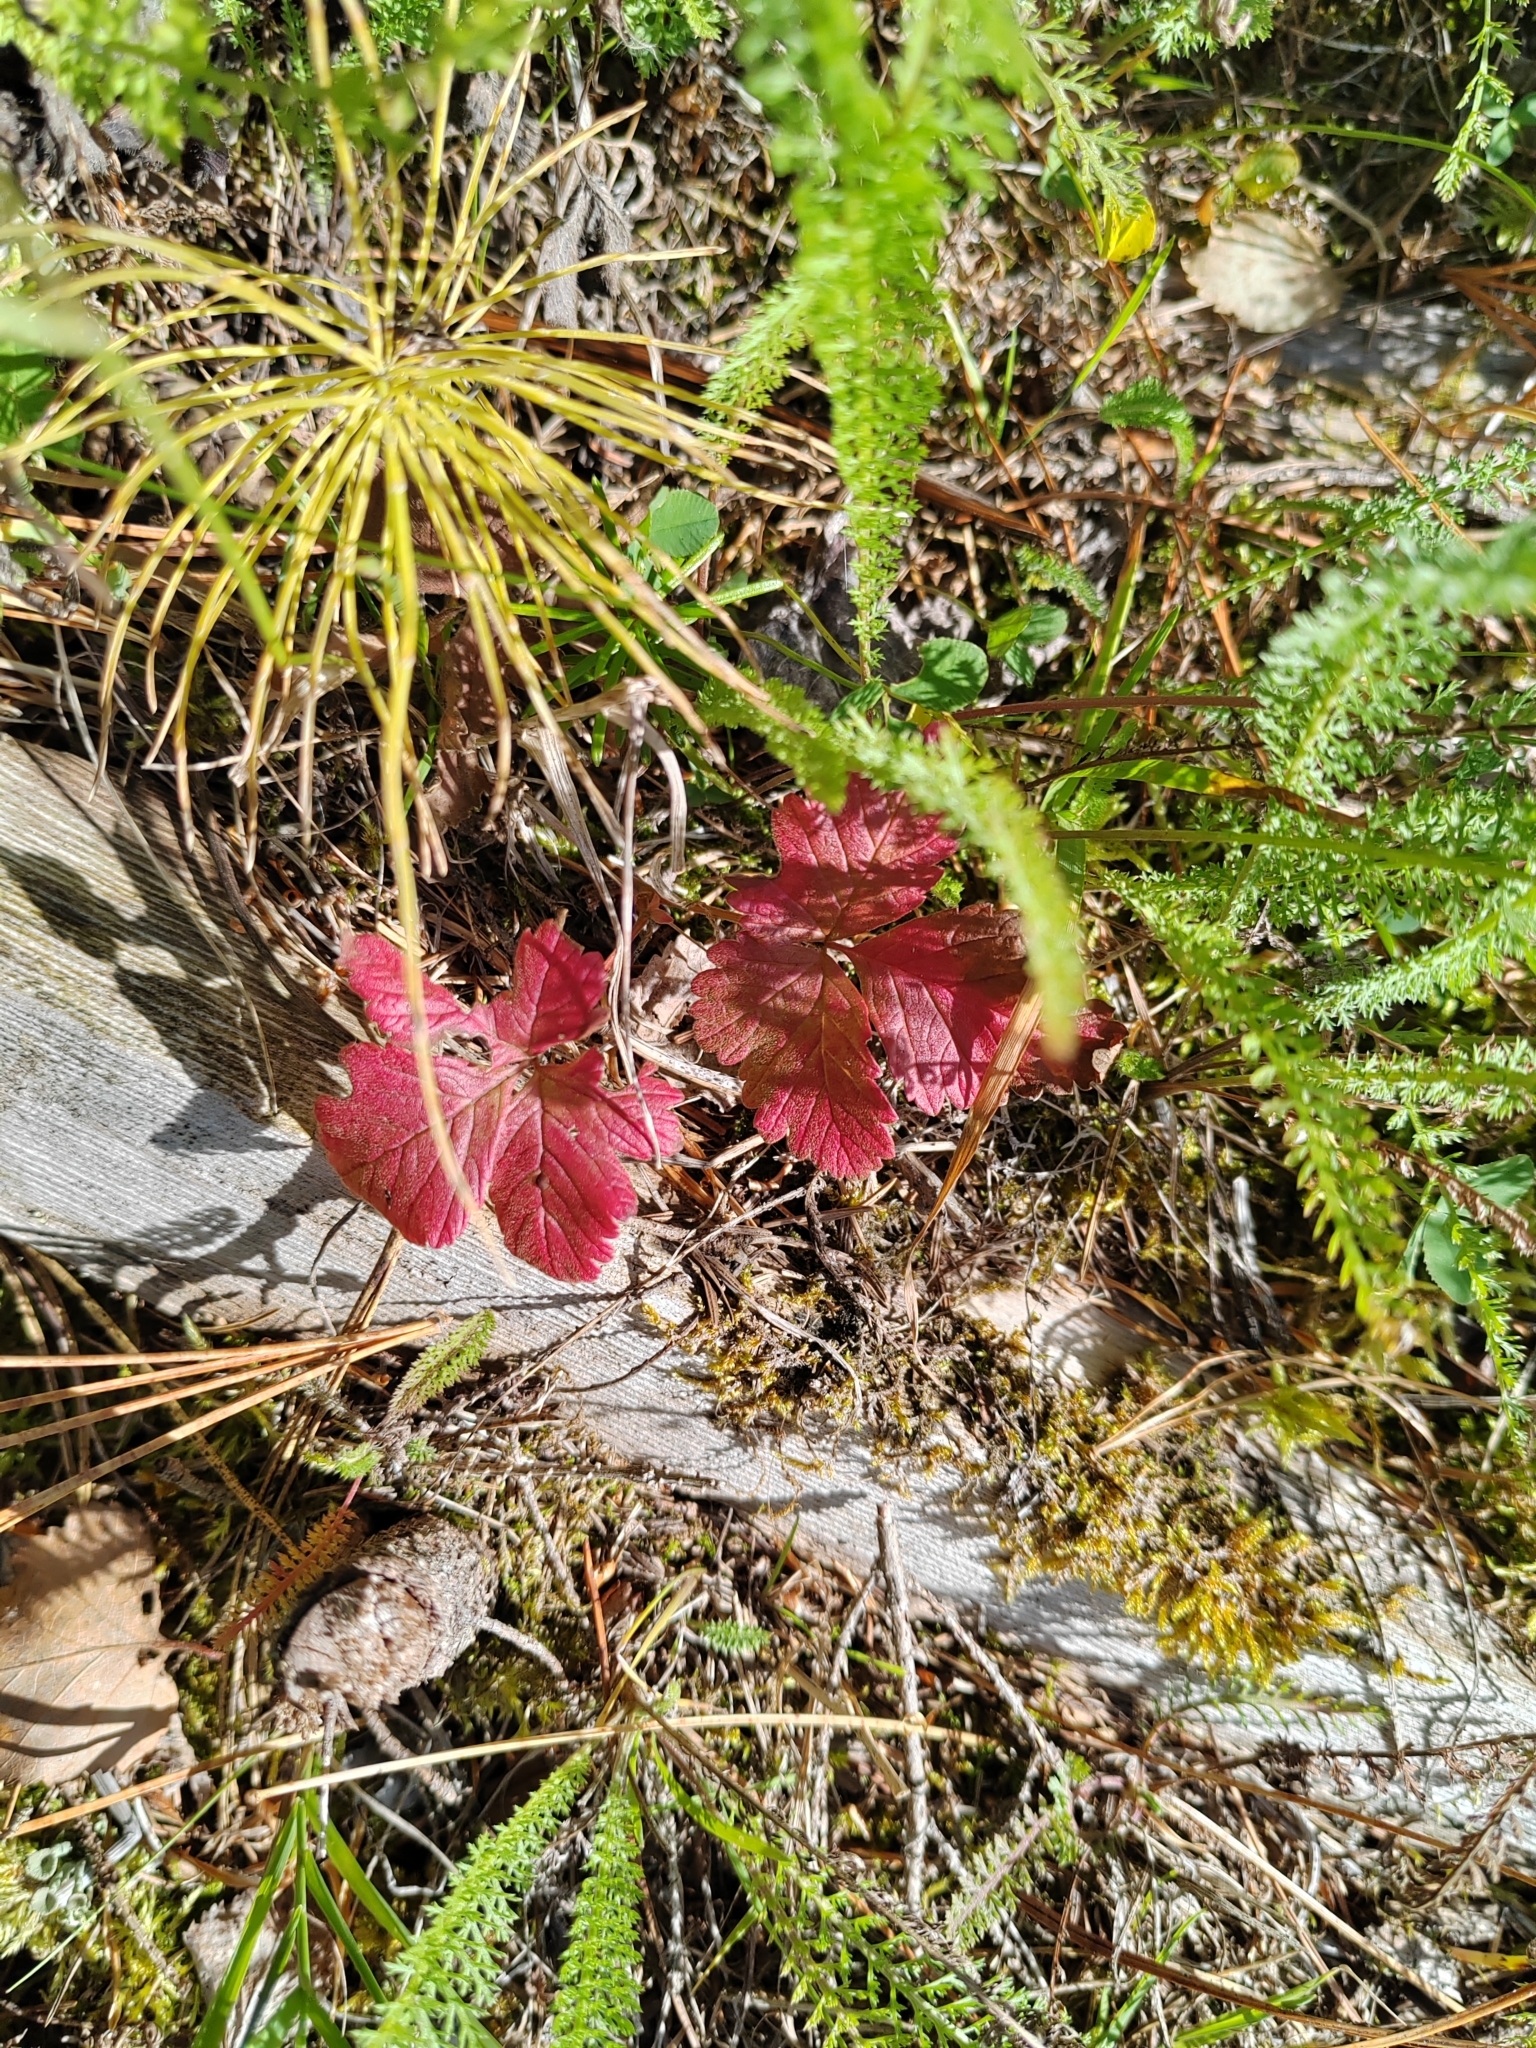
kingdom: Plantae
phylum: Tracheophyta
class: Magnoliopsida
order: Rosales
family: Rosaceae
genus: Rubus
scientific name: Rubus arcticus
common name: Arctic bramble
